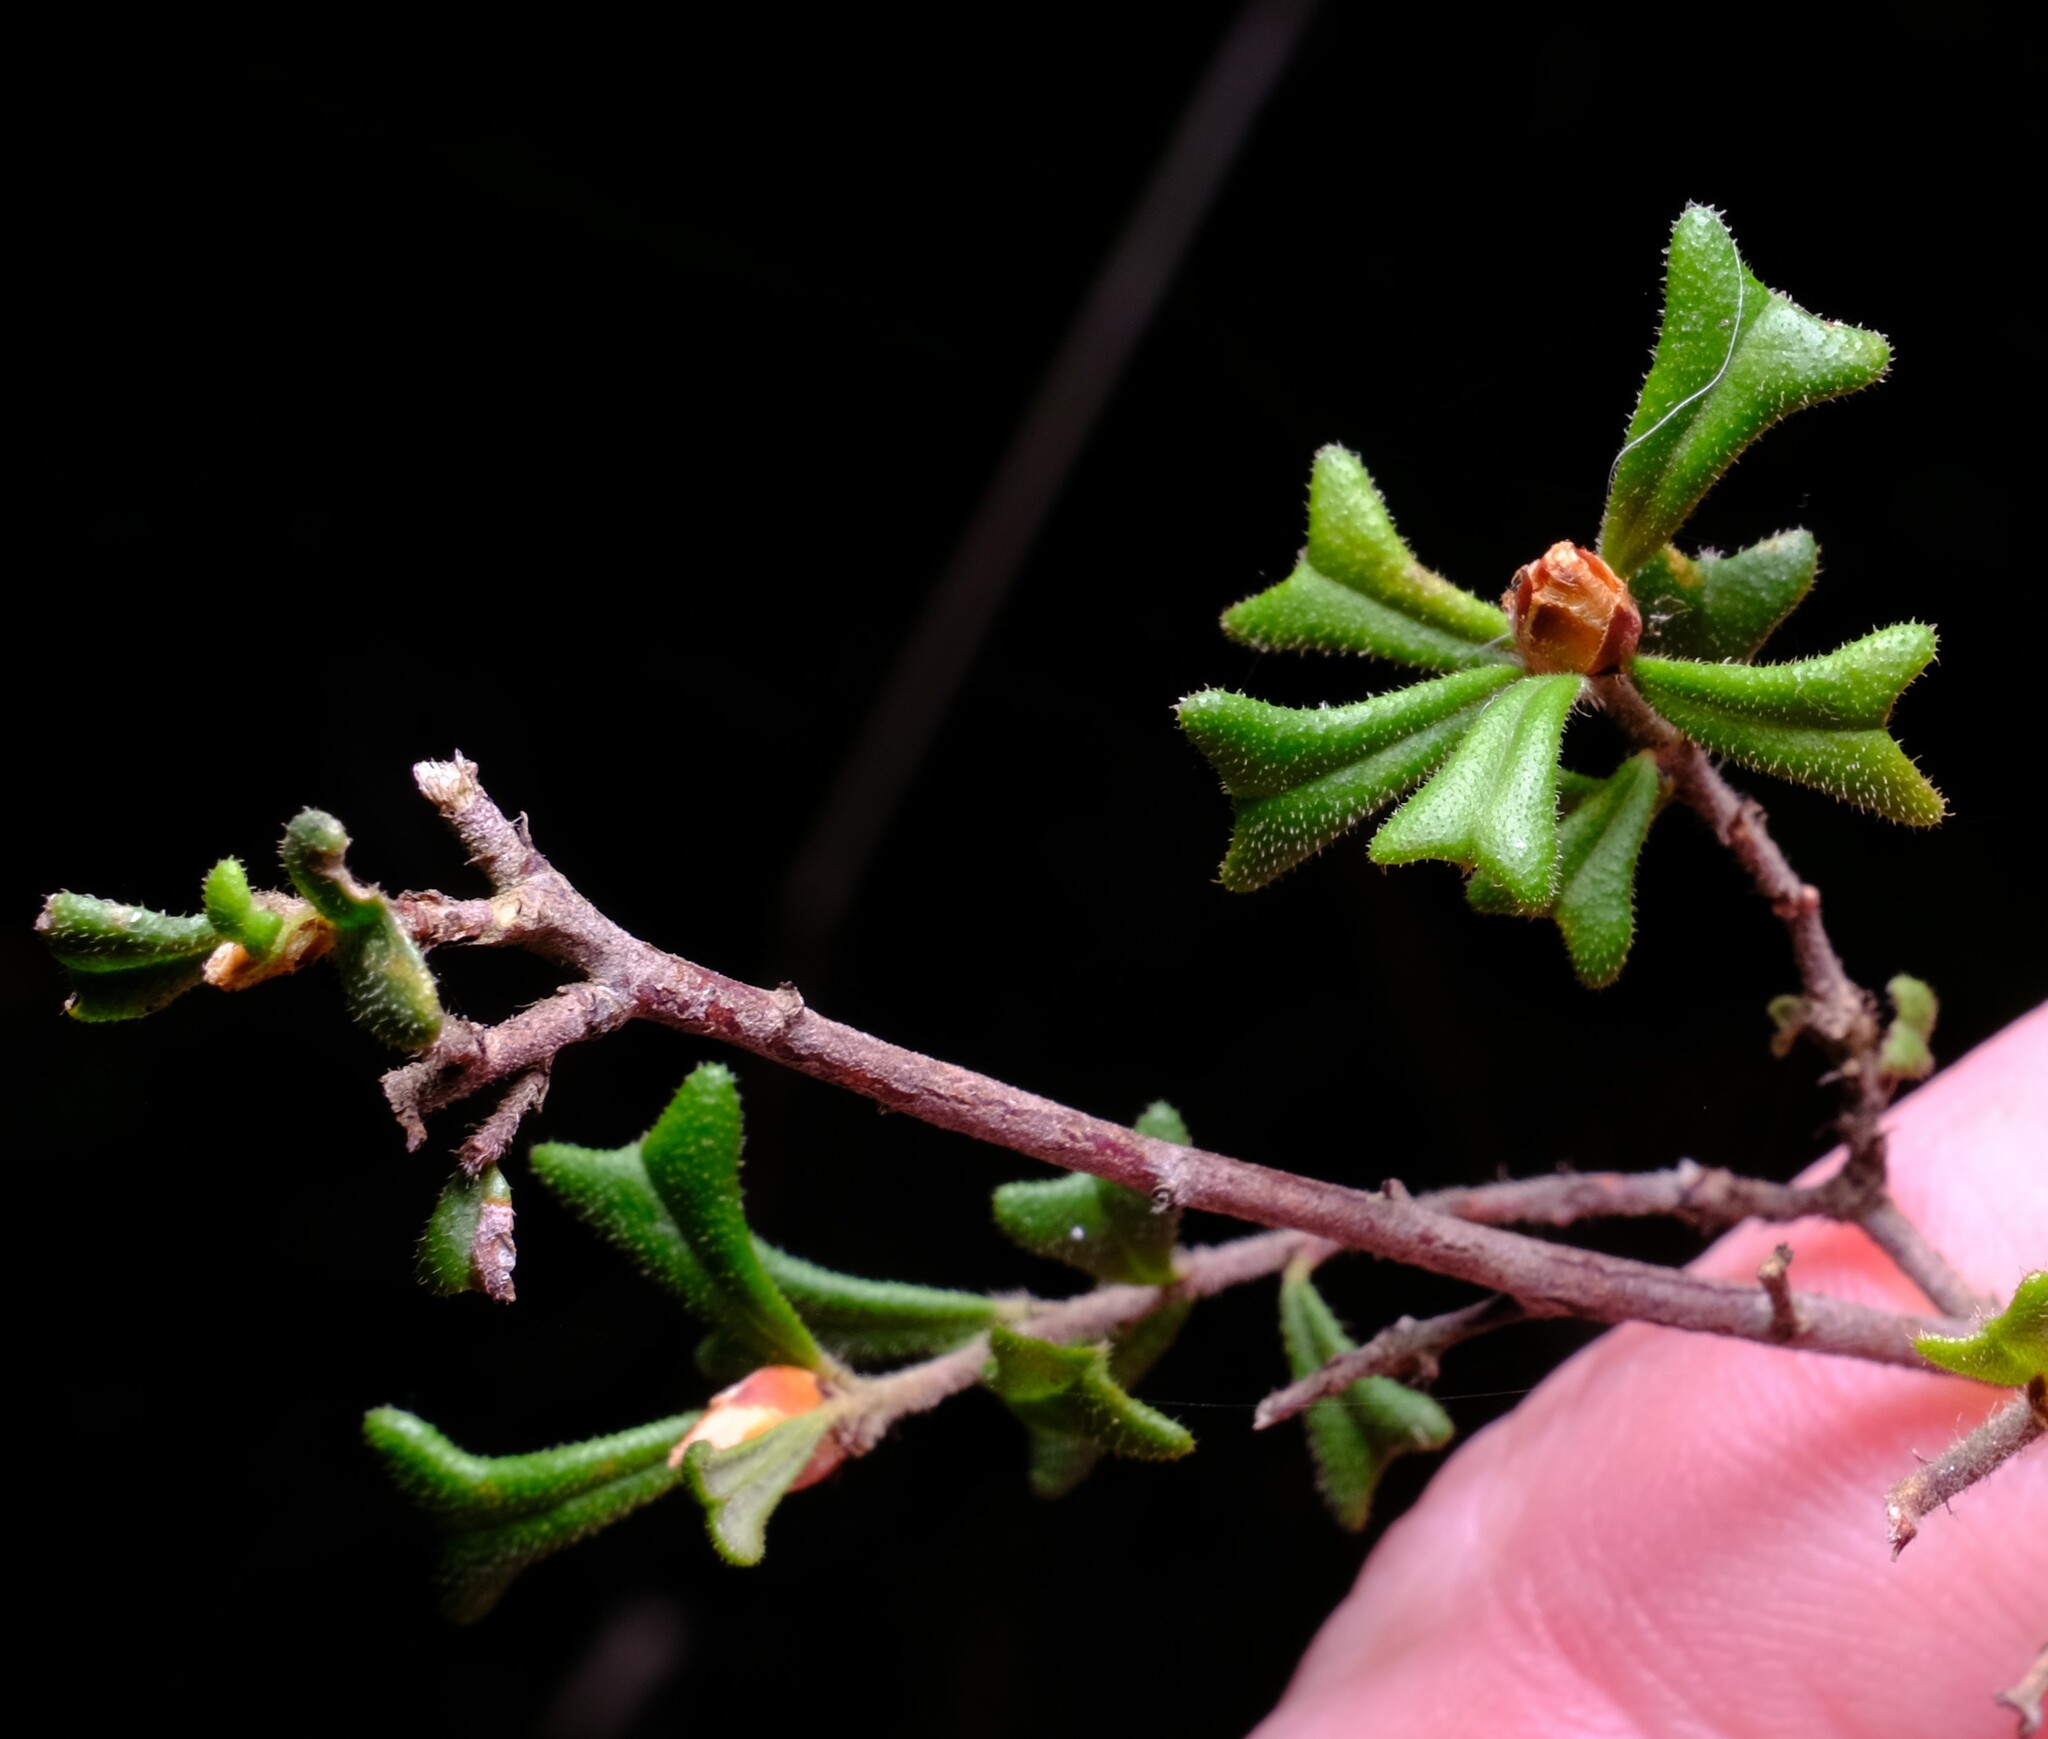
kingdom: Plantae
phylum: Tracheophyta
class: Magnoliopsida
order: Fabales
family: Fabaceae
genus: Pultenaea
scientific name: Pultenaea scabra
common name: Rough bush-pea
